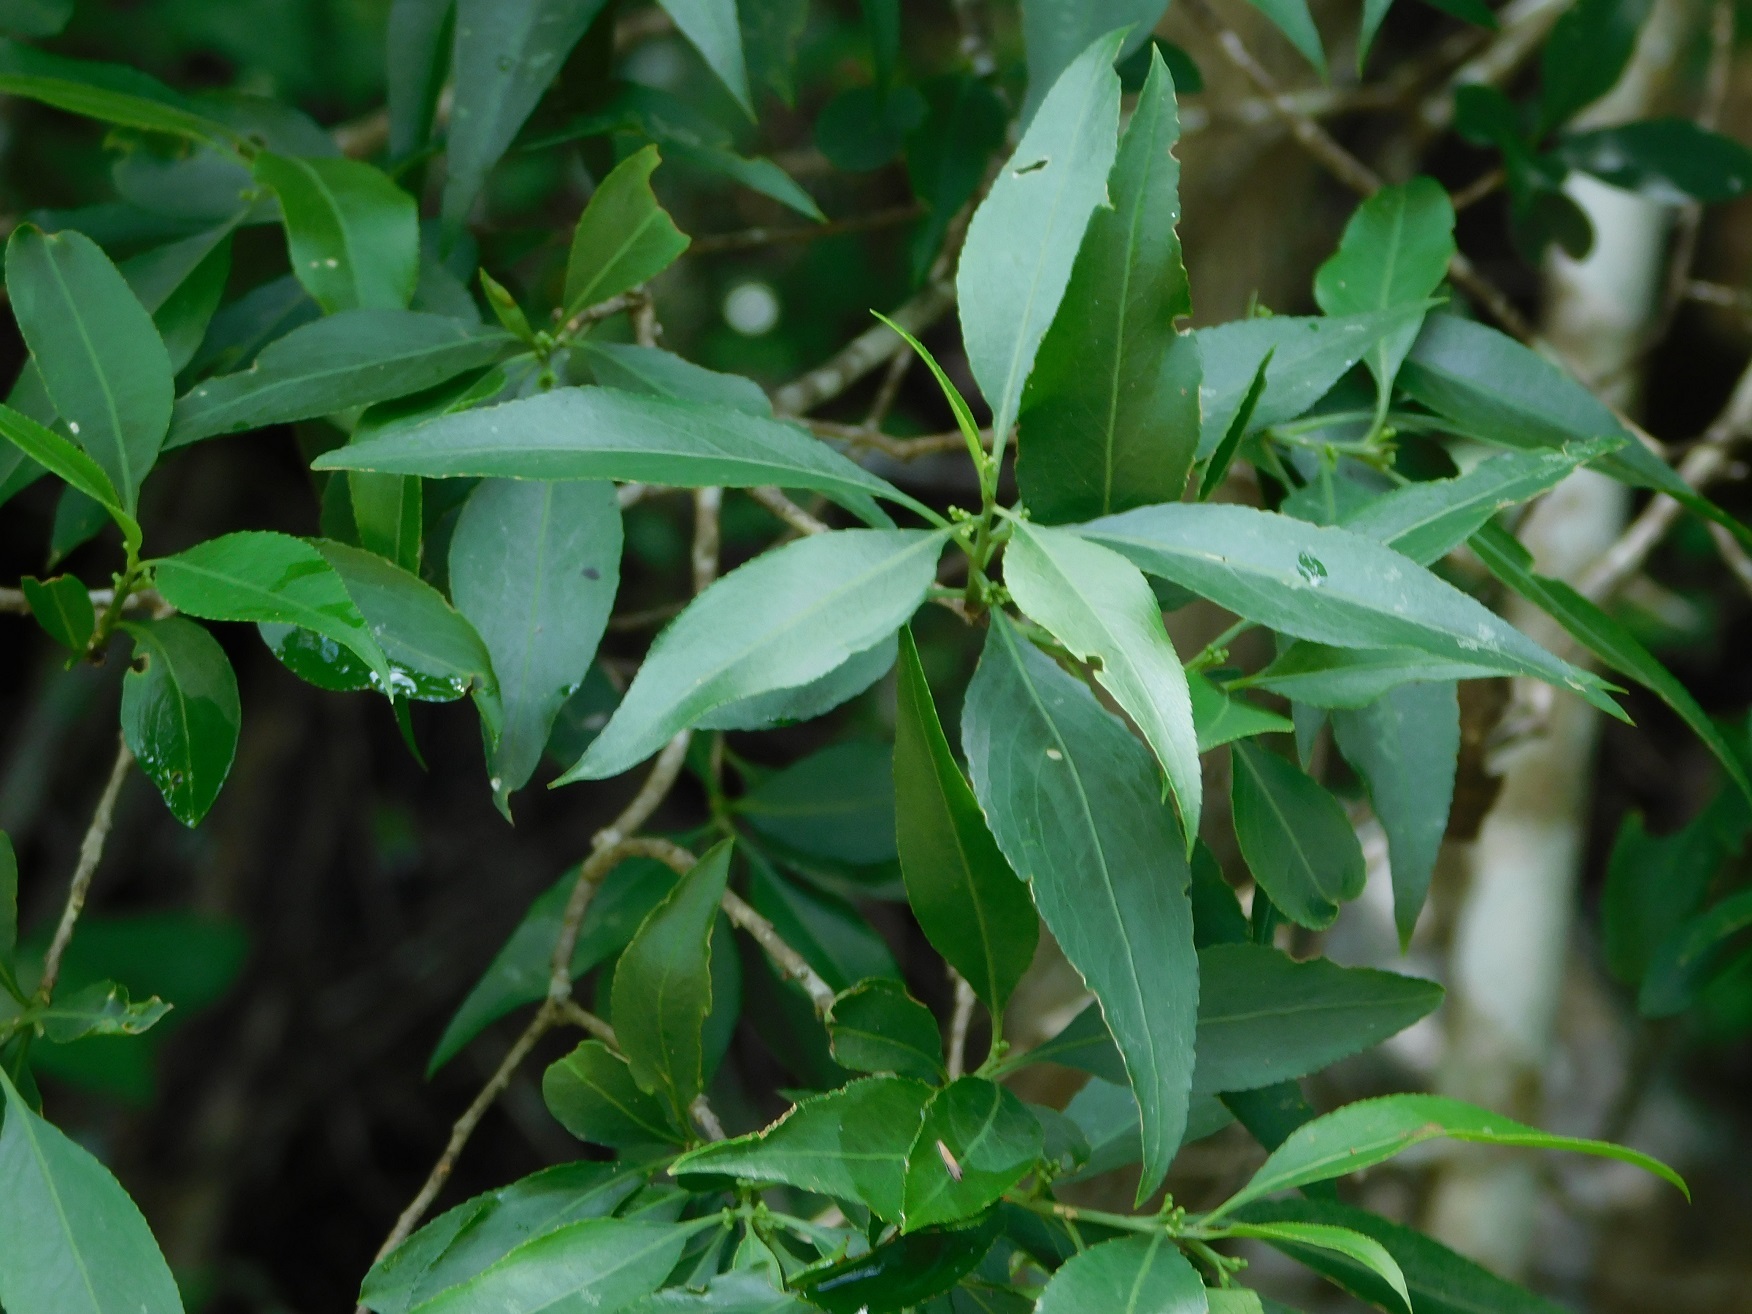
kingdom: Plantae
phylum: Tracheophyta
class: Magnoliopsida
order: Celastrales
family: Celastraceae
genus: Wimmeria
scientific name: Wimmeria acuminata
